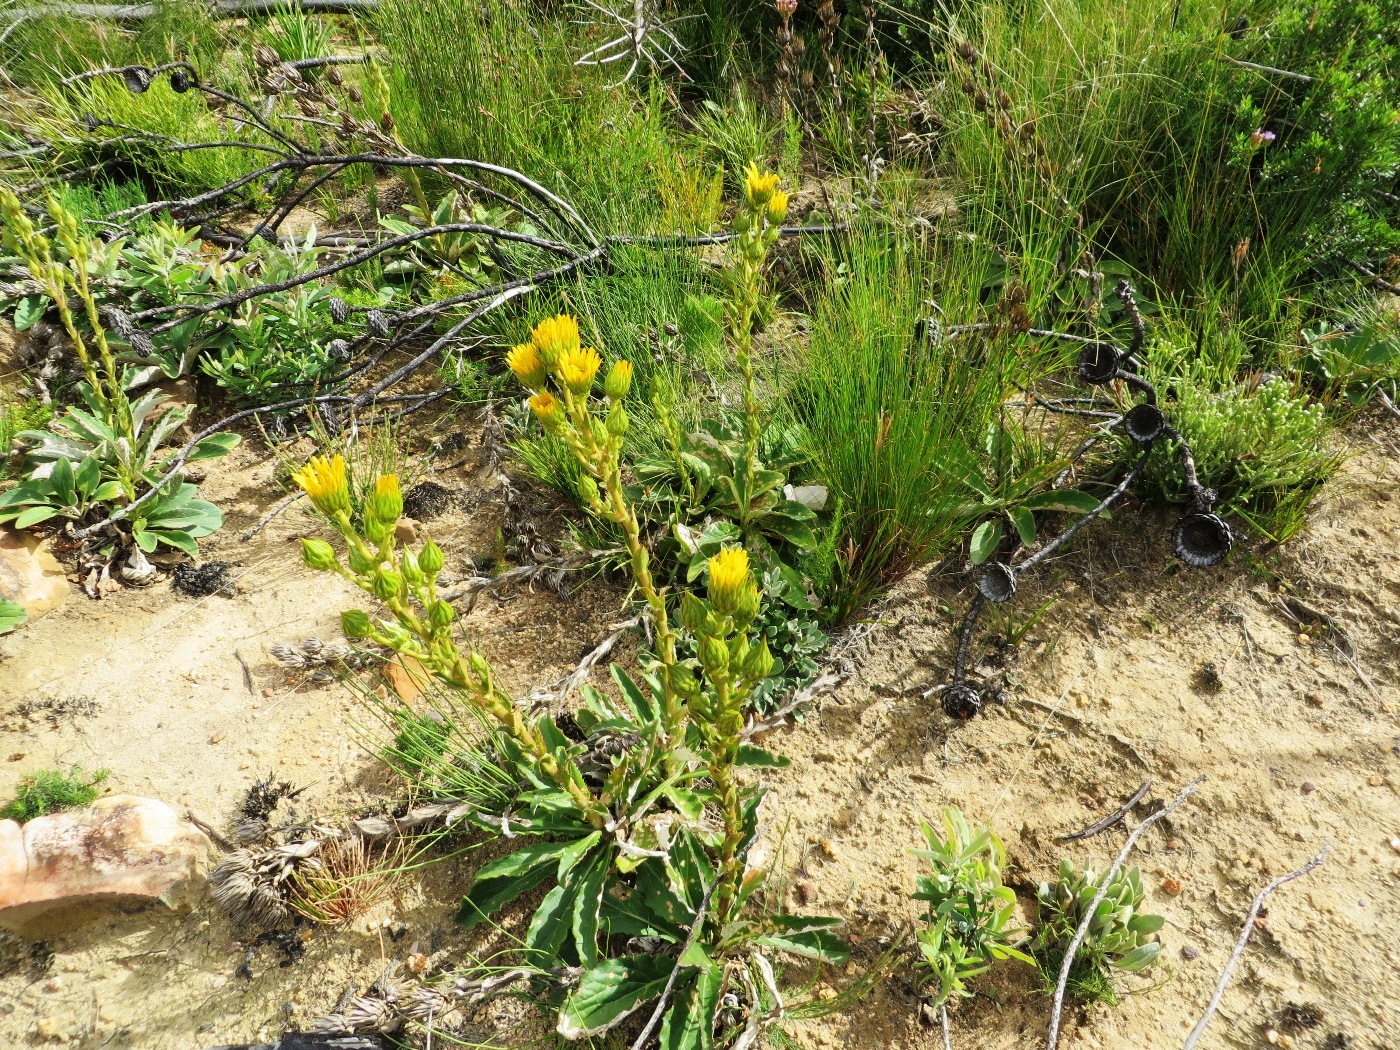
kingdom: Plantae
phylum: Tracheophyta
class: Magnoliopsida
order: Asterales
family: Asteraceae
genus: Berkheya
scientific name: Berkheya herbacea
